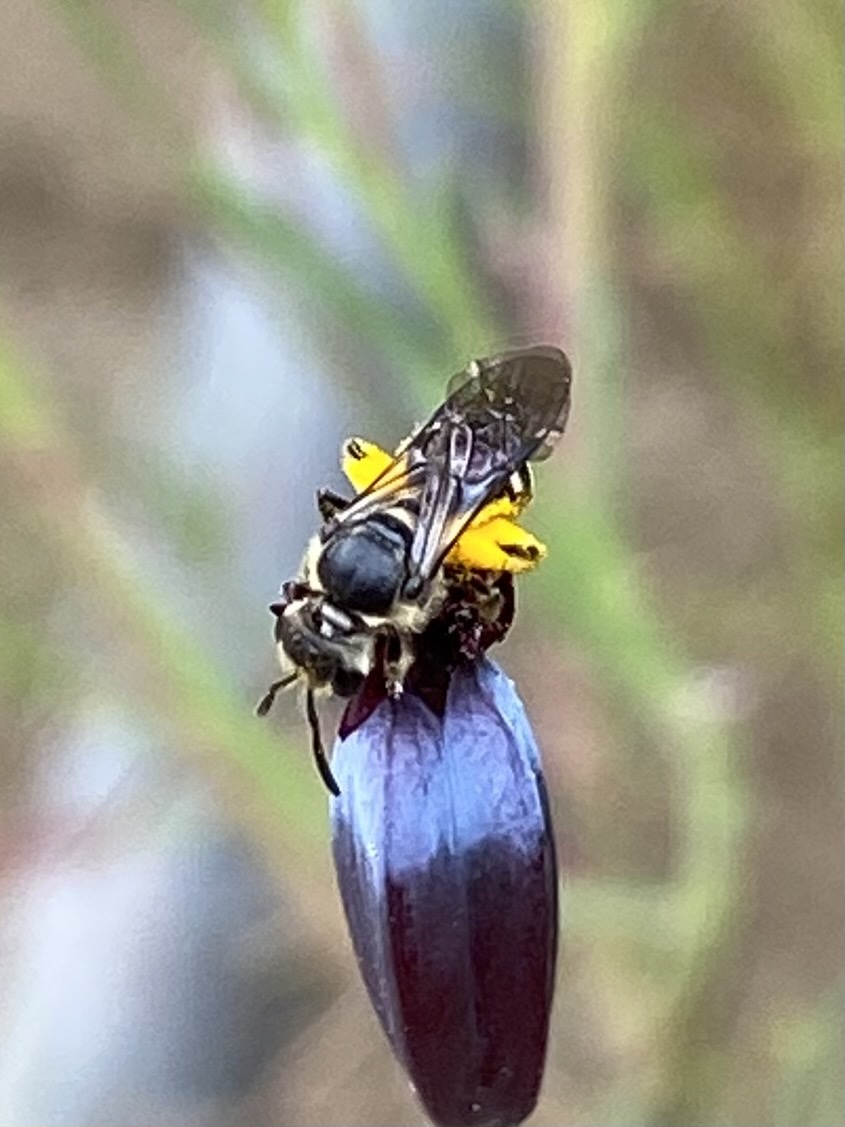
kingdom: Animalia
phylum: Arthropoda
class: Insecta
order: Hymenoptera
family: Halictidae
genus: Lasioglossum
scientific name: Lasioglossum
